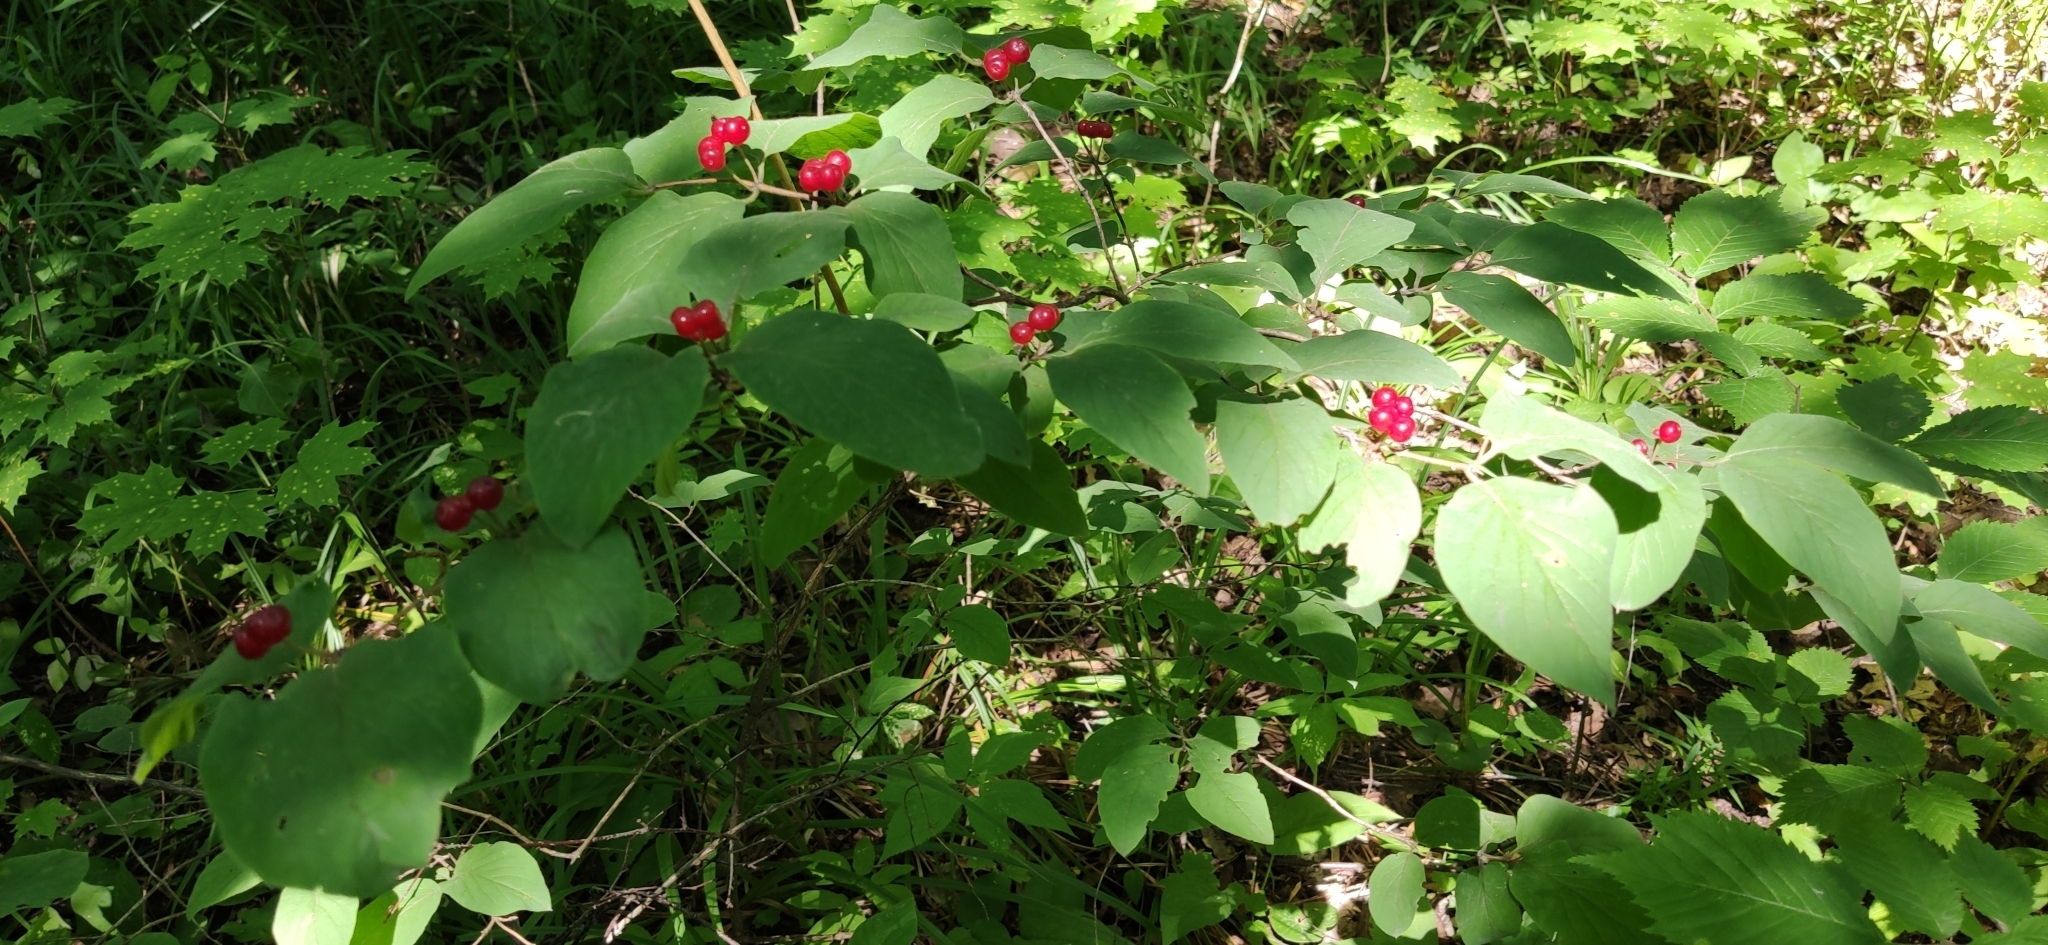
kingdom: Plantae
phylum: Tracheophyta
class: Magnoliopsida
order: Dipsacales
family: Caprifoliaceae
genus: Lonicera
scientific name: Lonicera xylosteum
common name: Fly honeysuckle
